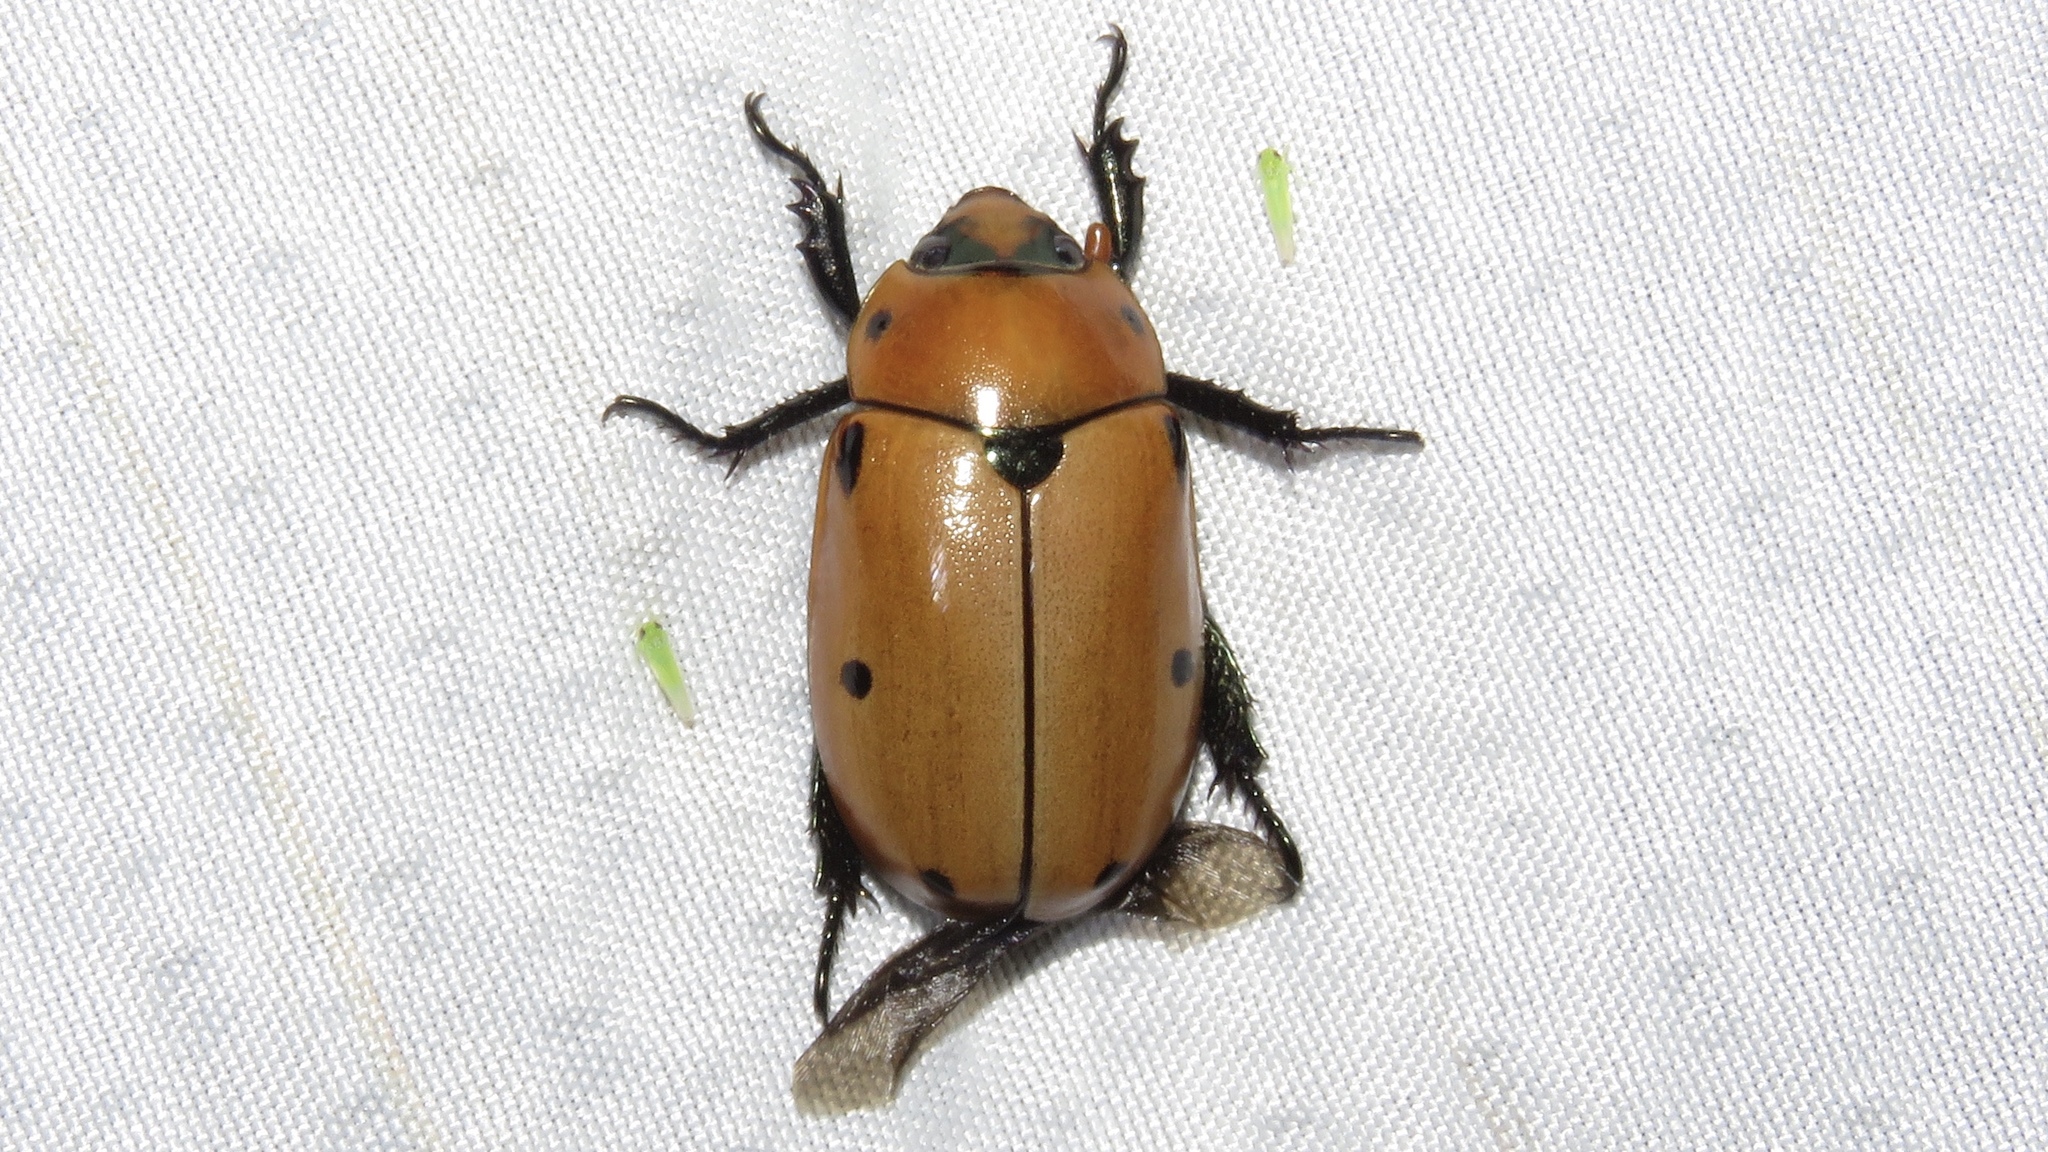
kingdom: Animalia
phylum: Arthropoda
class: Insecta
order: Coleoptera
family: Scarabaeidae
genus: Pelidnota
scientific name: Pelidnota punctata
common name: Grapevine beetle
